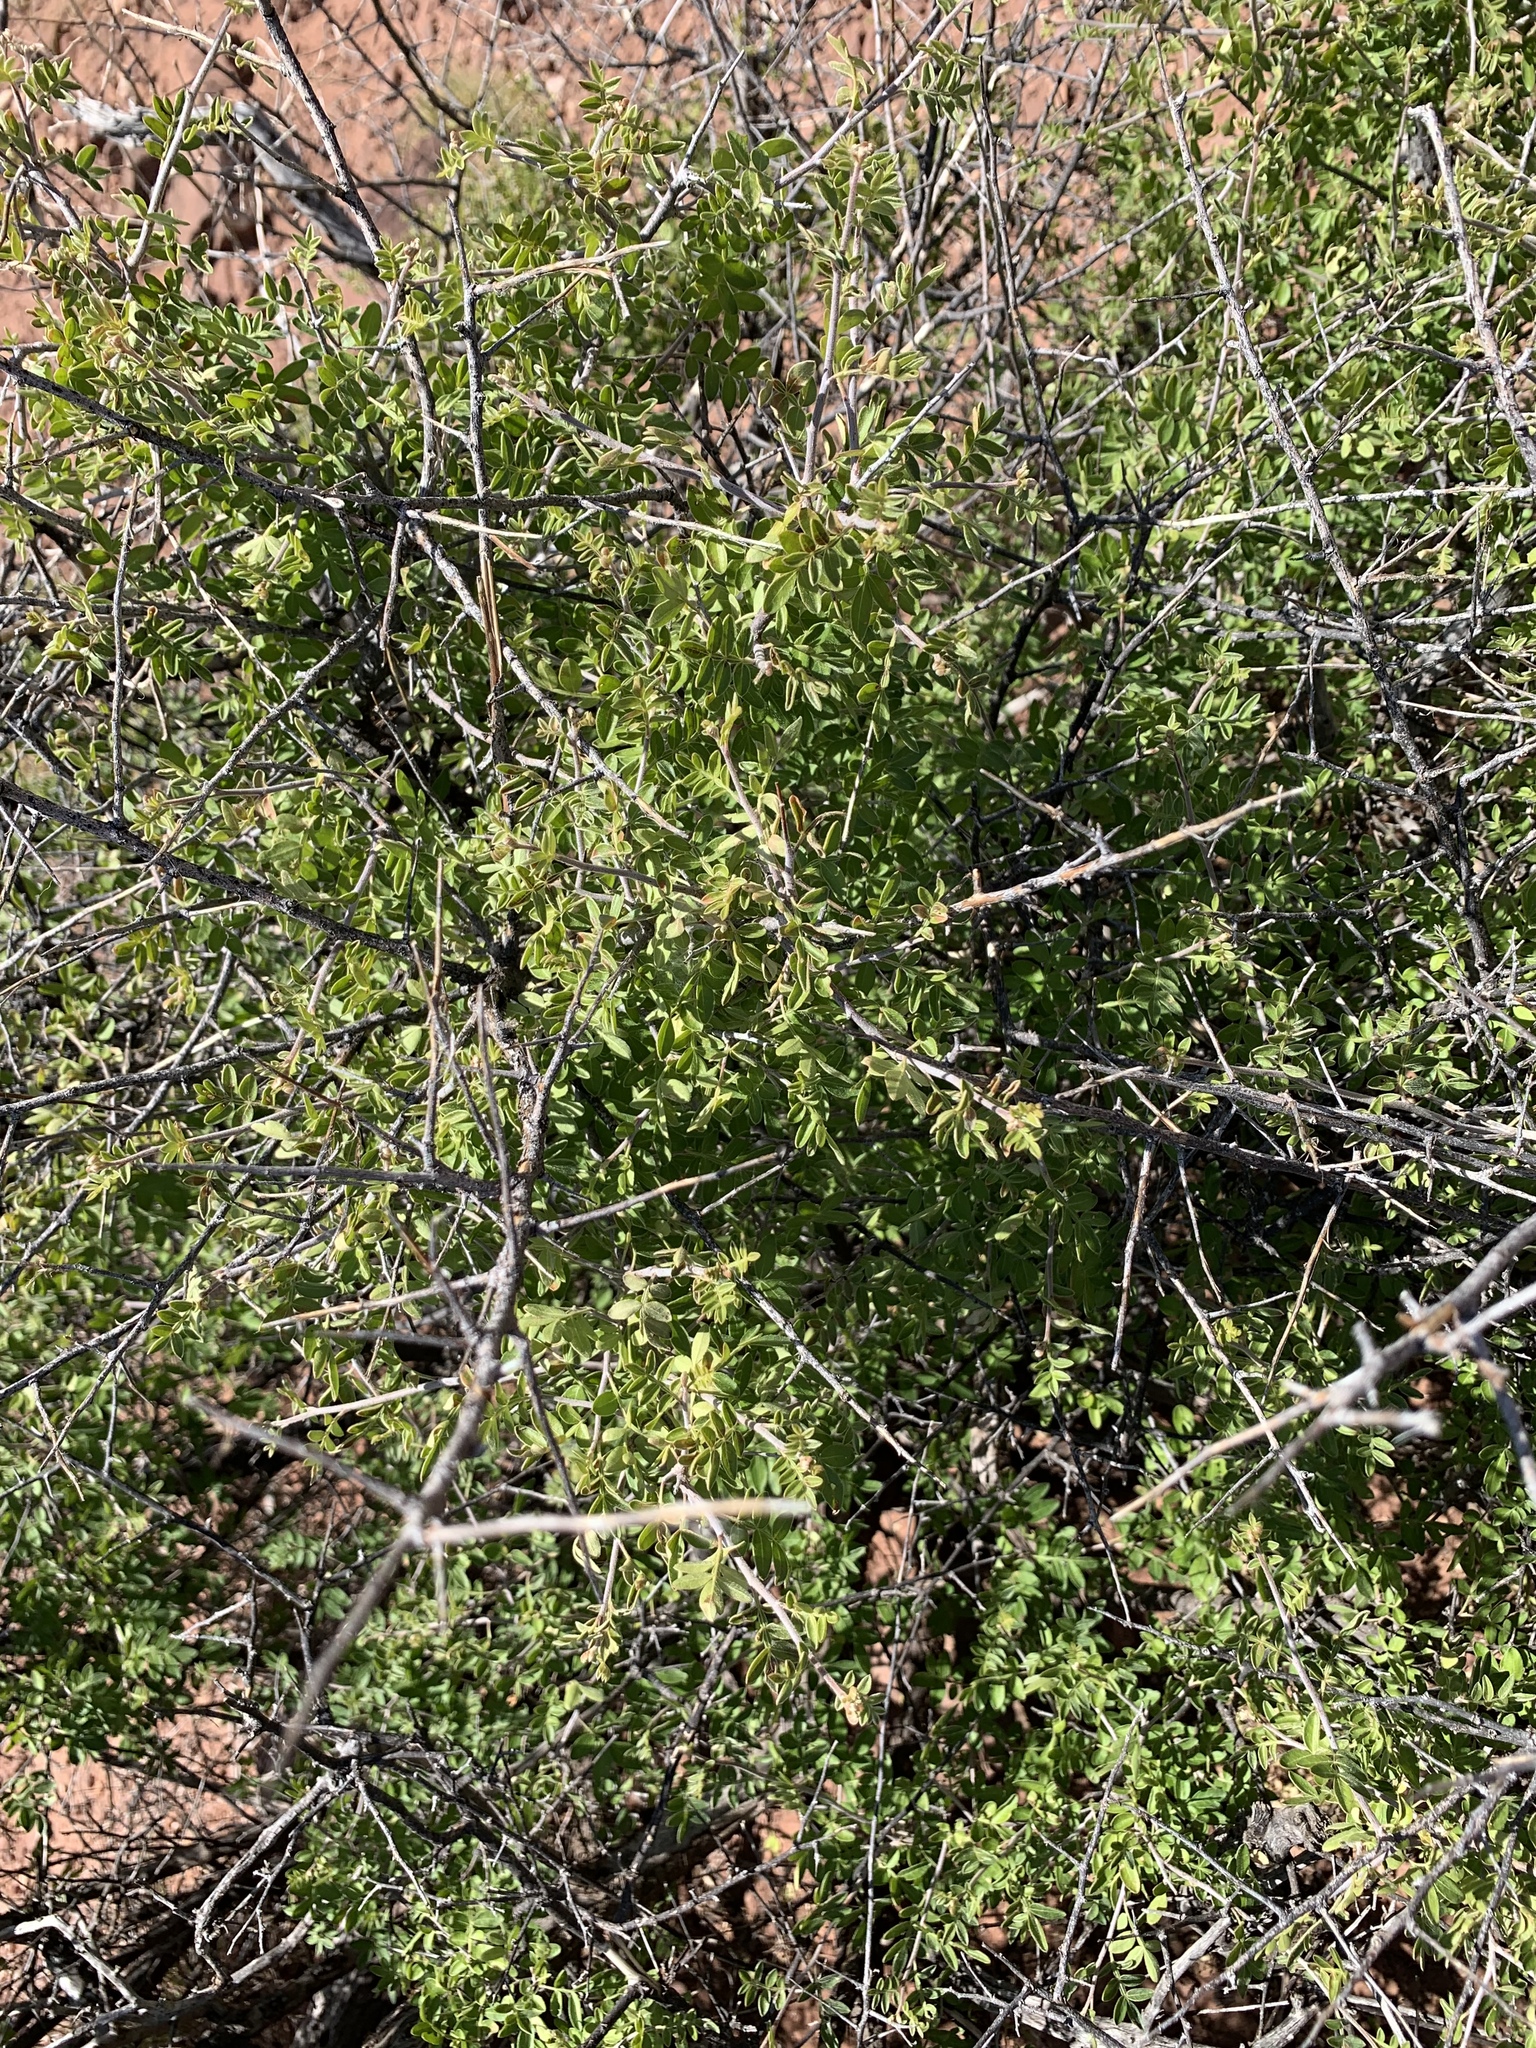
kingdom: Plantae
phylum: Tracheophyta
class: Magnoliopsida
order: Sapindales
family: Anacardiaceae
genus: Rhus
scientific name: Rhus microphylla
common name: Desert sumac
